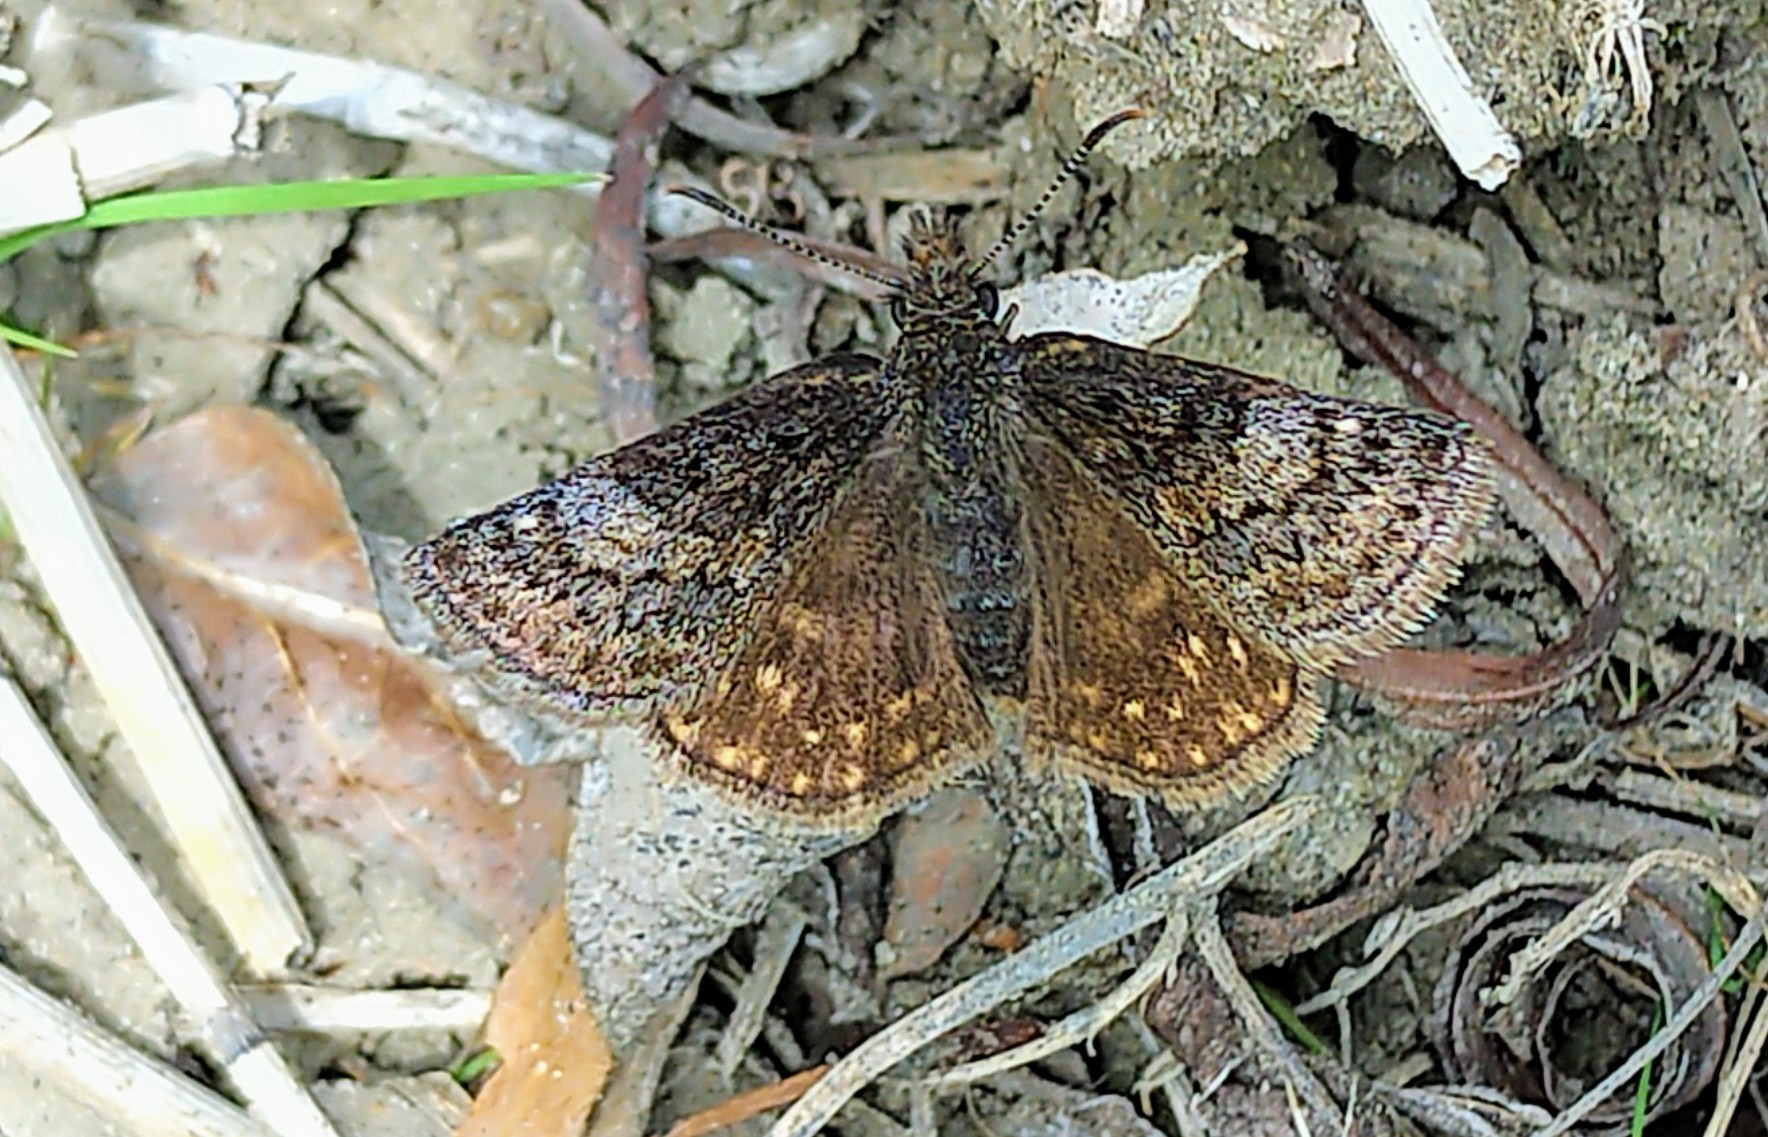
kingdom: Animalia
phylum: Arthropoda
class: Insecta
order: Lepidoptera
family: Hesperiidae
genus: Erynnis
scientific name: Erynnis icelus
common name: Dreamy duskywing
